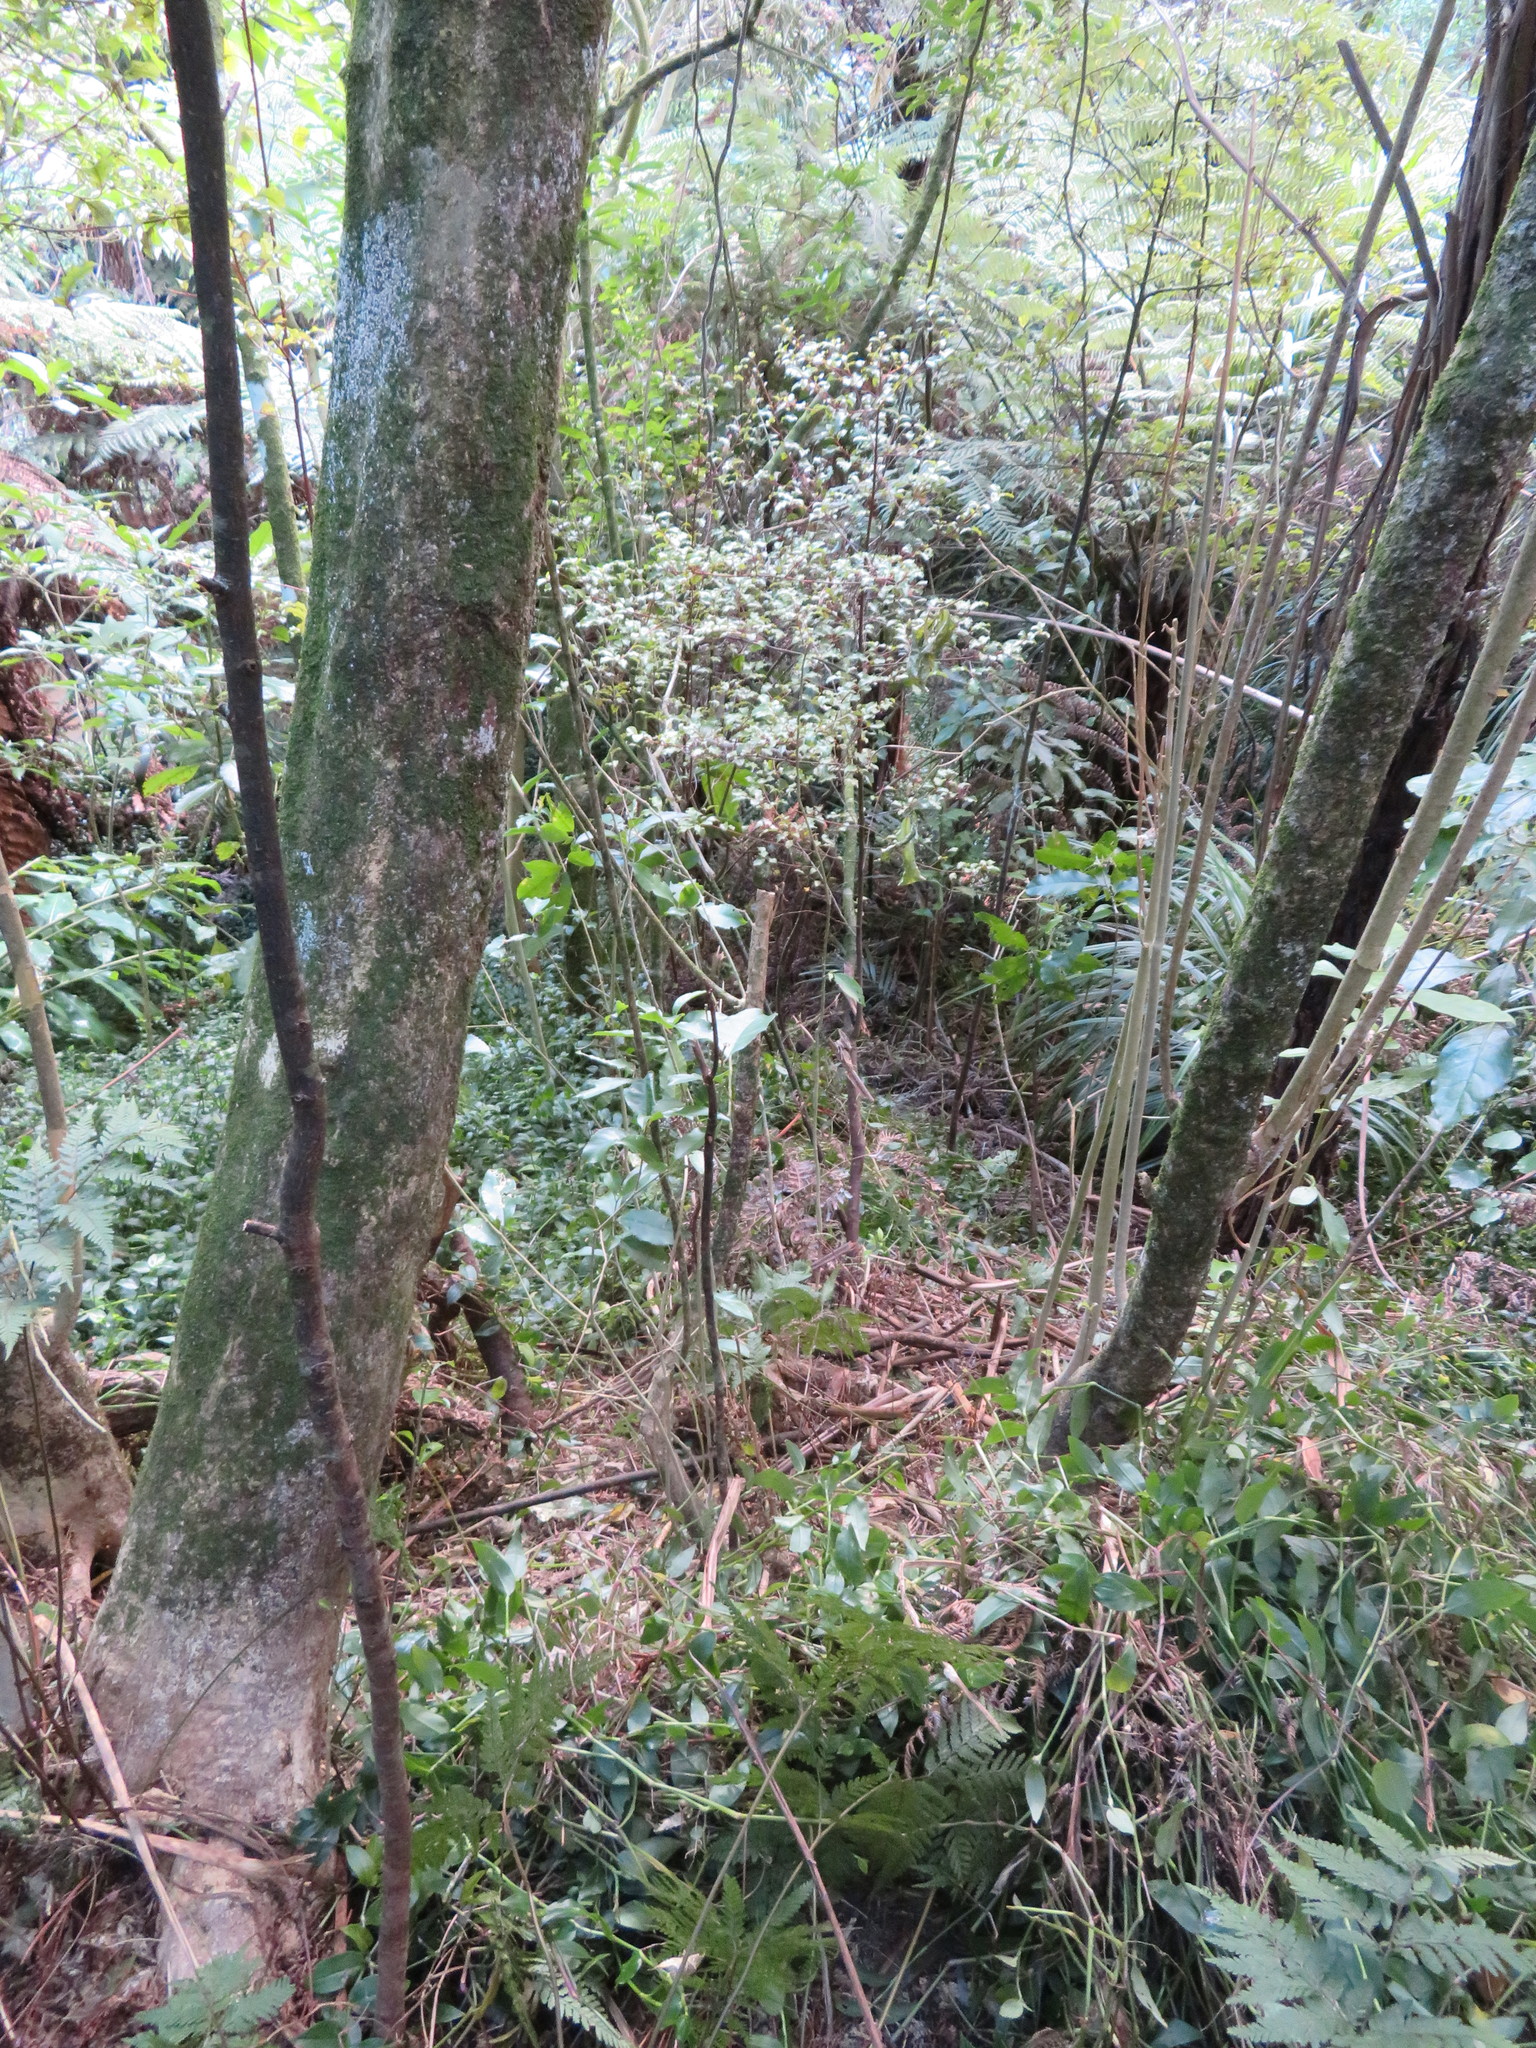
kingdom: Plantae
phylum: Tracheophyta
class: Liliopsida
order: Commelinales
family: Commelinaceae
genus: Tradescantia
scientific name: Tradescantia fluminensis
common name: Wandering-jew
